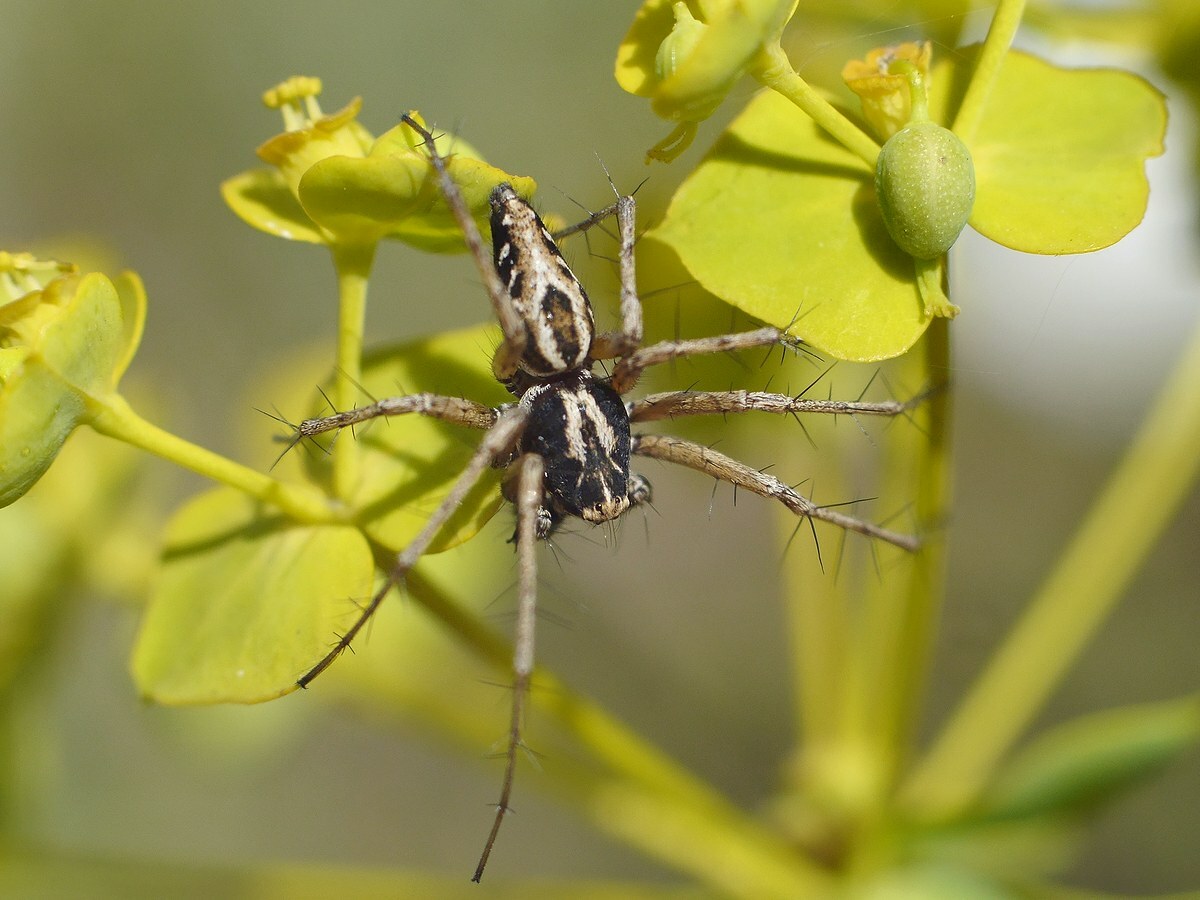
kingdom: Animalia
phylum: Arthropoda
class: Arachnida
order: Araneae
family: Oxyopidae
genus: Oxyopes
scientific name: Oxyopes heterophthalmus
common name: Lynx spider
